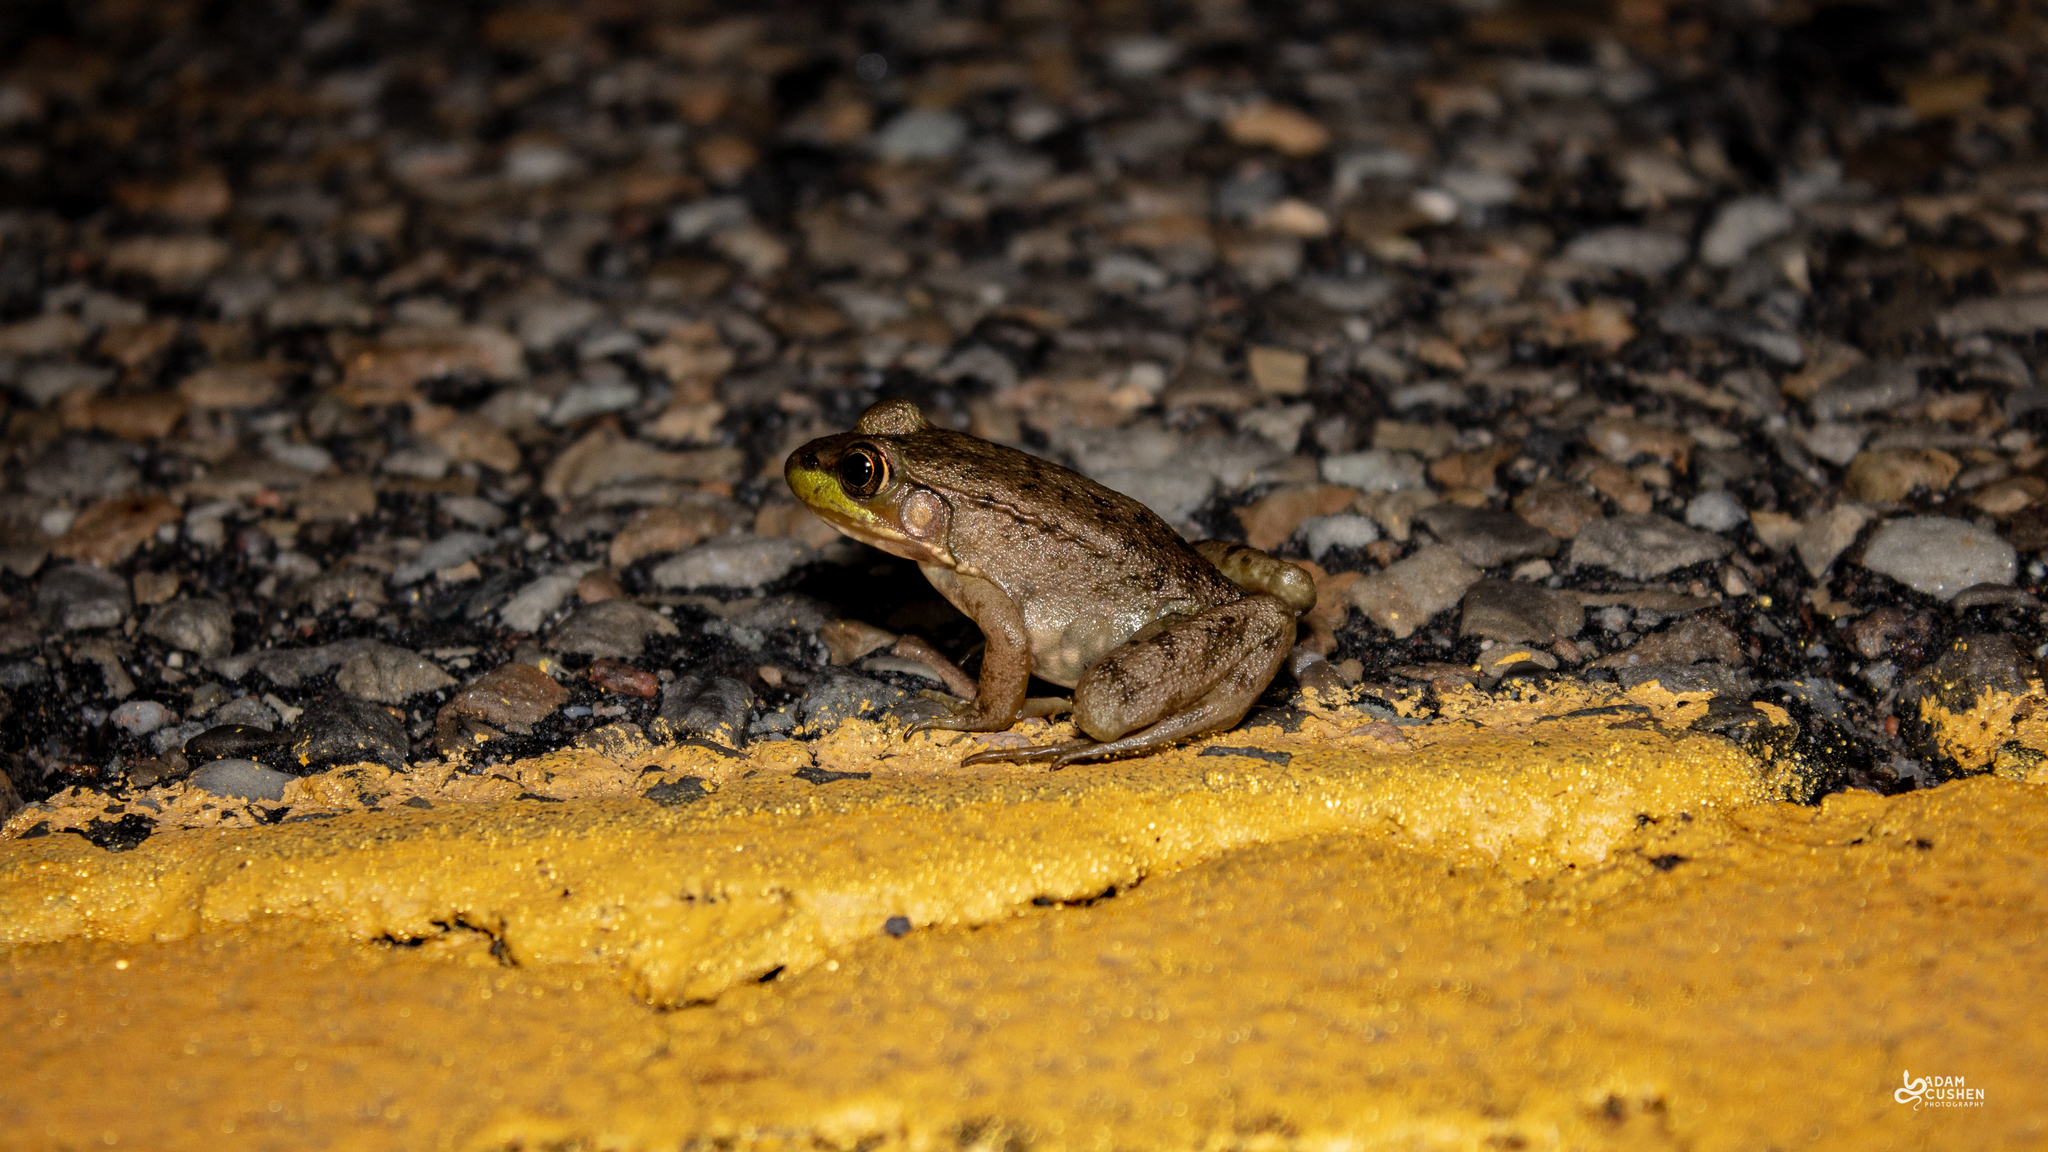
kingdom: Animalia
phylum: Chordata
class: Amphibia
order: Anura
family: Ranidae
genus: Lithobates
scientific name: Lithobates clamitans
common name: Green frog
